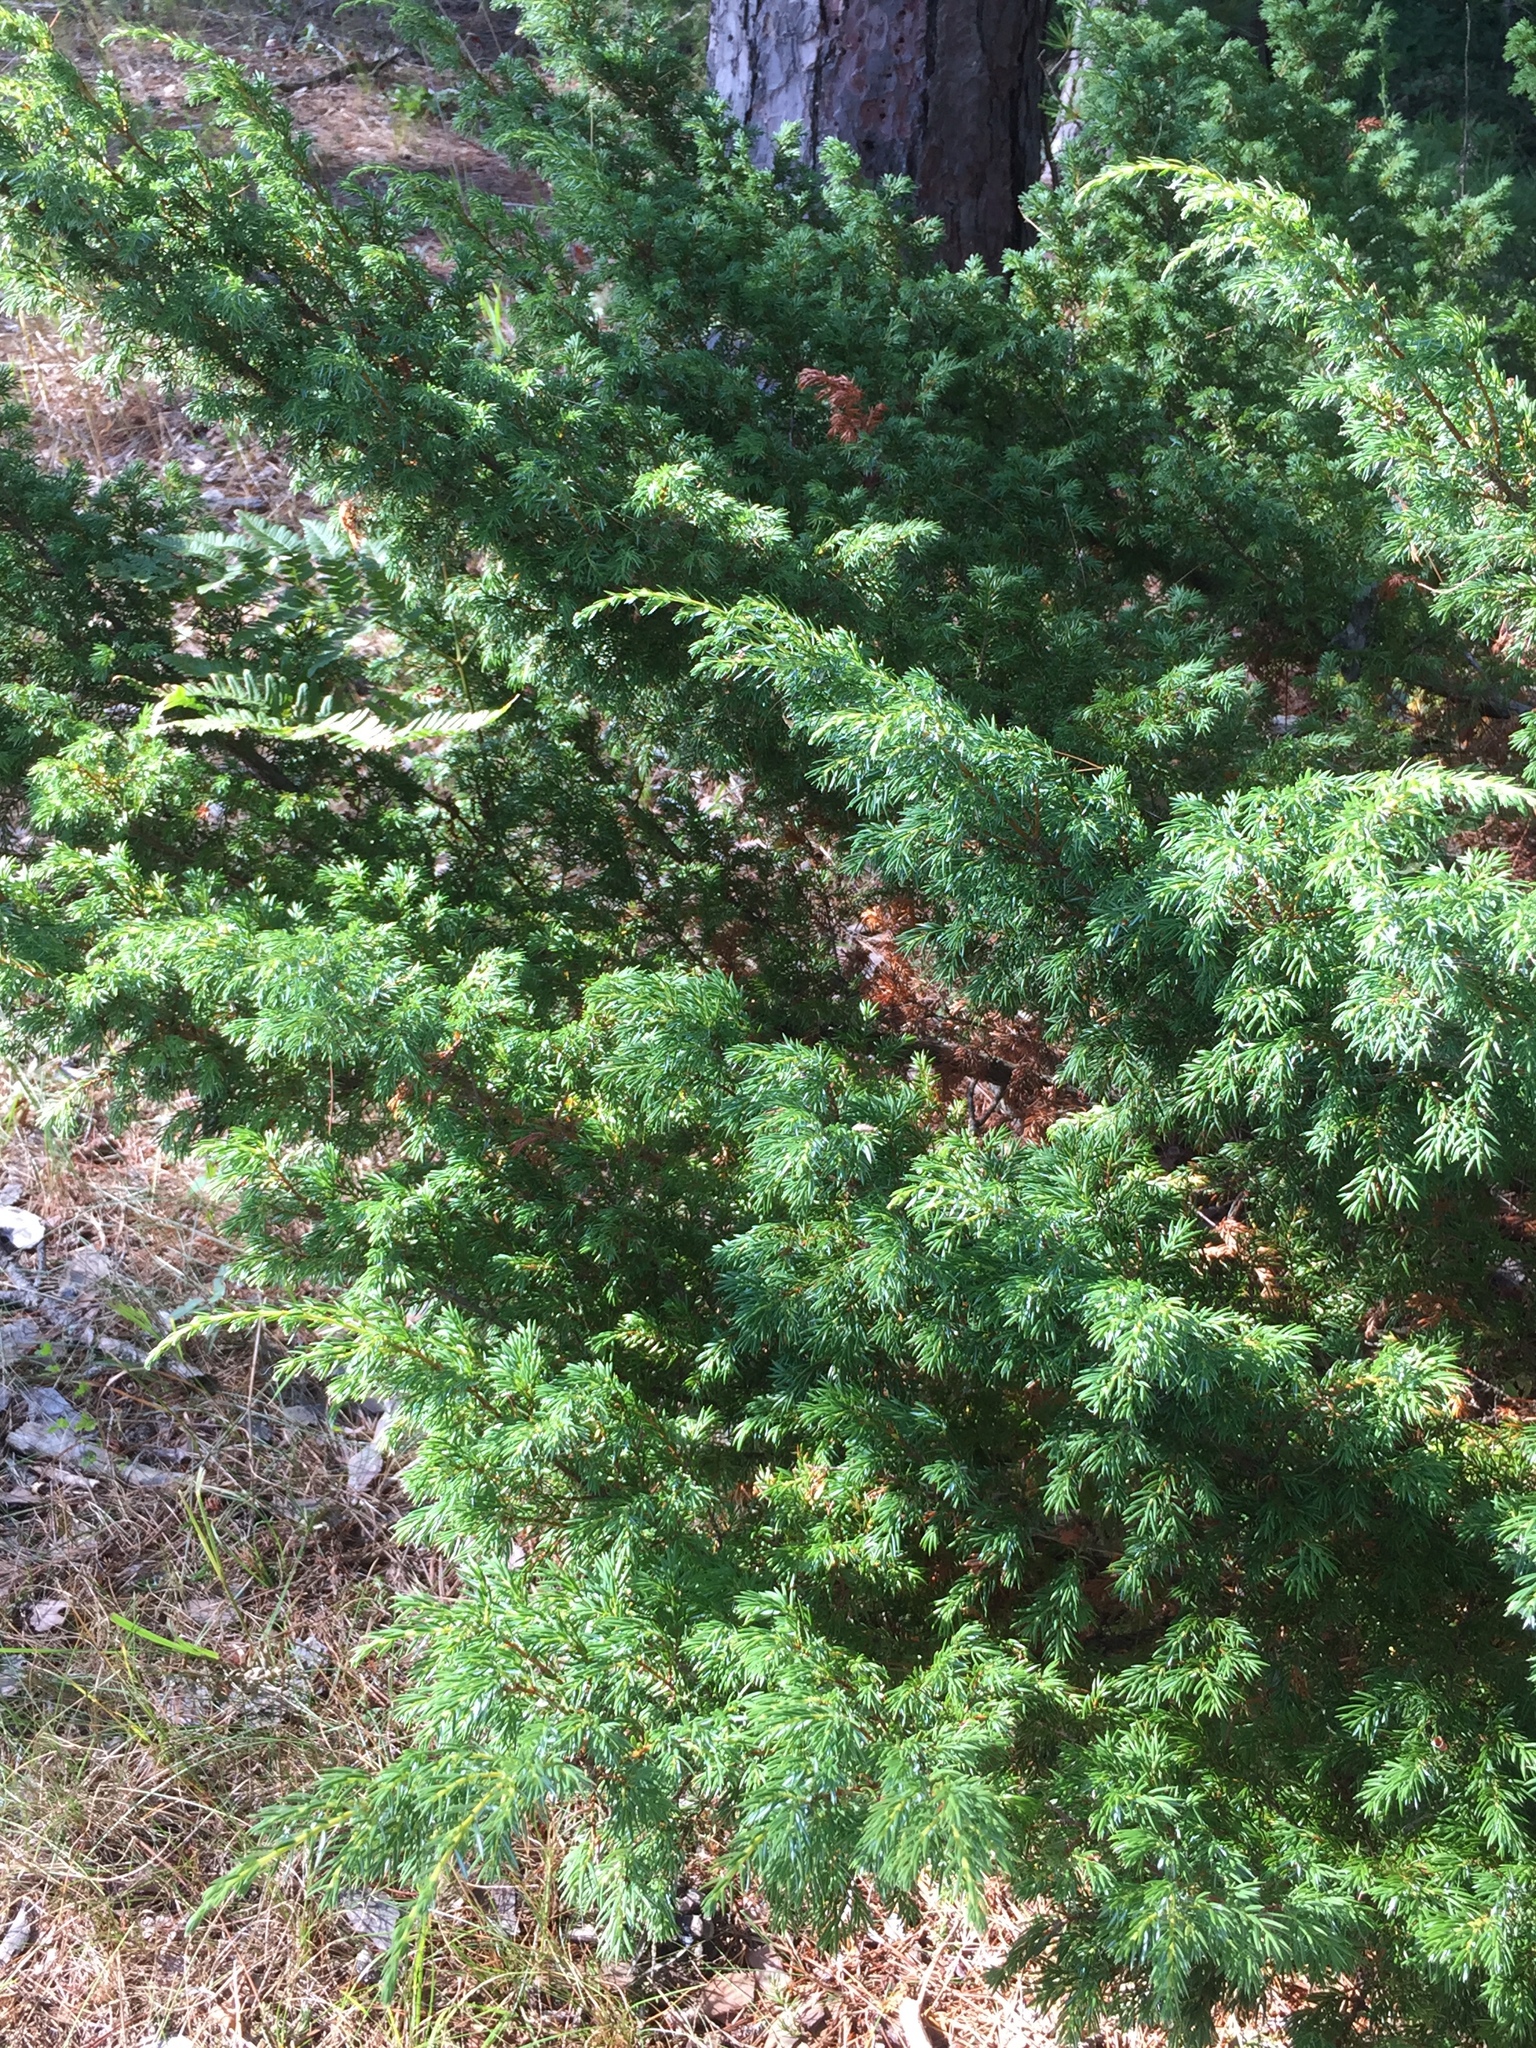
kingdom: Plantae
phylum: Tracheophyta
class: Pinopsida
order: Pinales
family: Cupressaceae
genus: Juniperus
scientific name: Juniperus communis
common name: Common juniper
